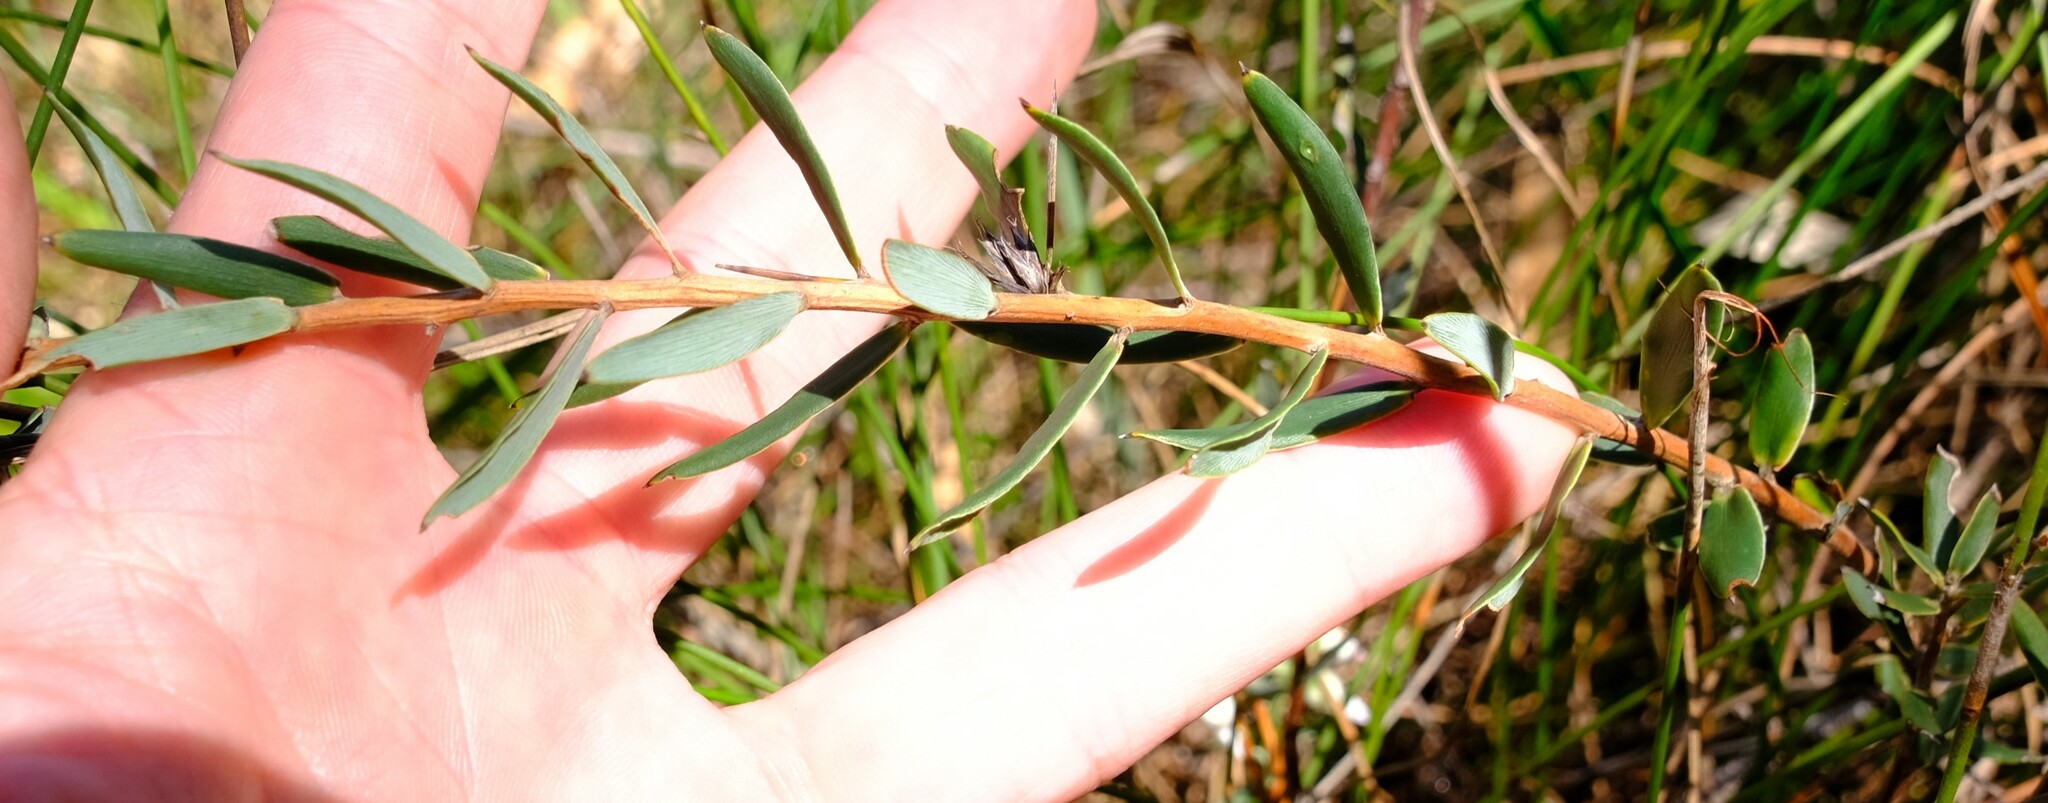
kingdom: Plantae
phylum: Tracheophyta
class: Magnoliopsida
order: Ericales
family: Ericaceae
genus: Conostephium
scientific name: Conostephium pendulum
